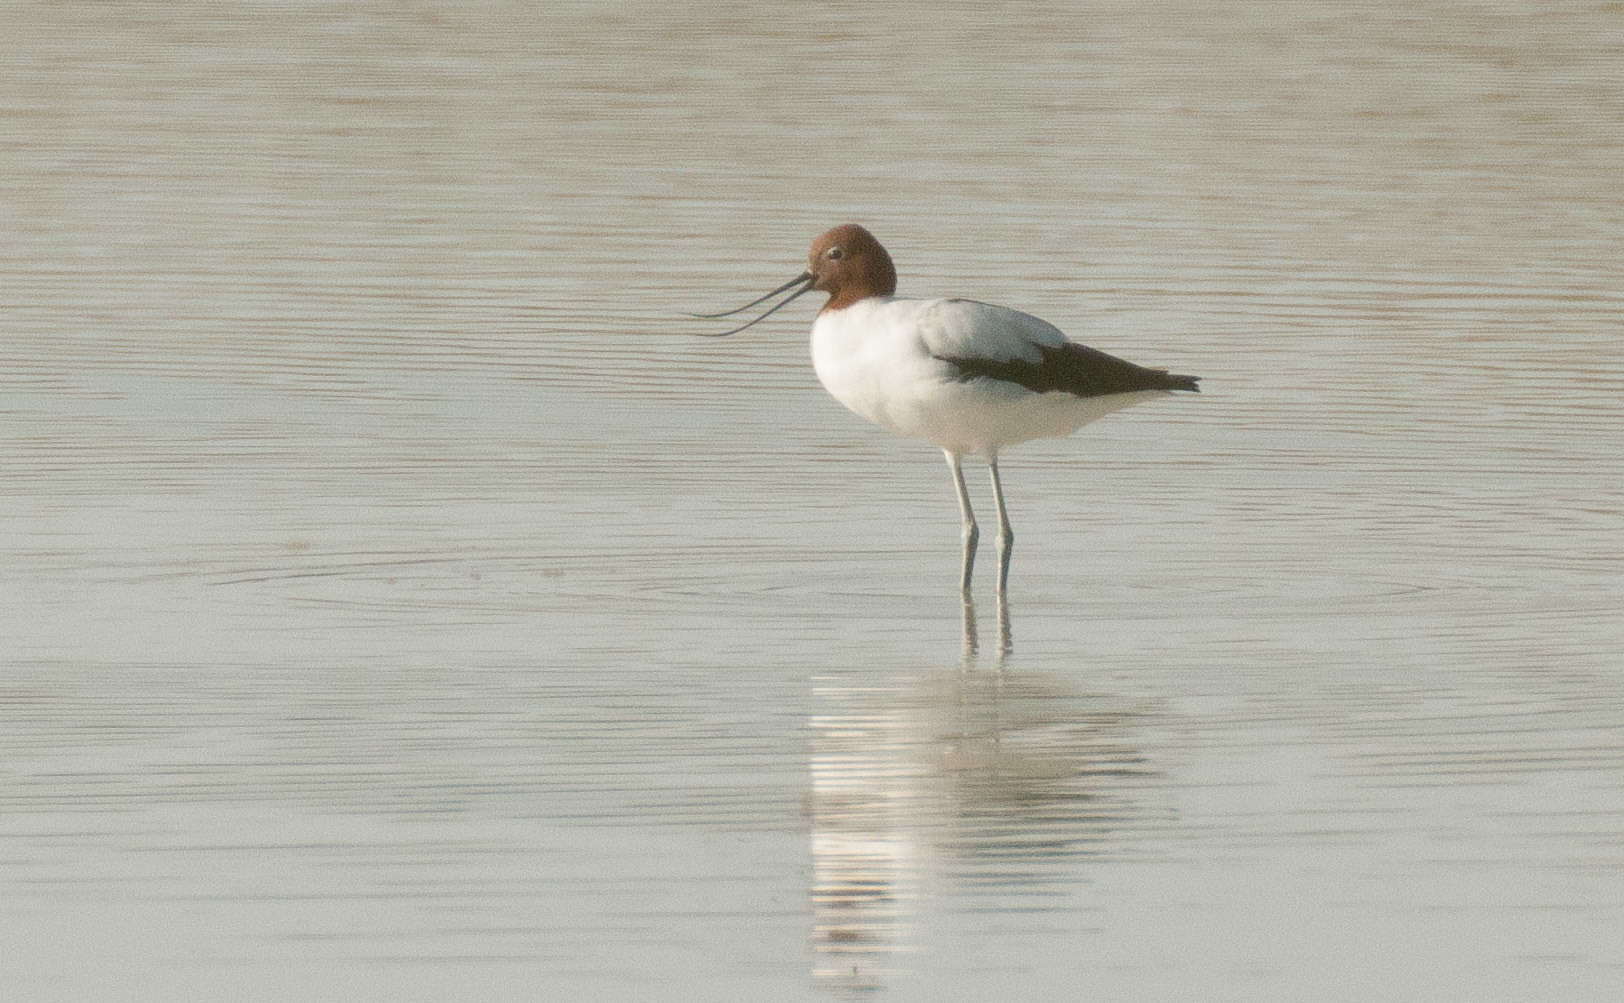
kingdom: Animalia
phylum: Chordata
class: Aves
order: Charadriiformes
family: Recurvirostridae
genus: Recurvirostra
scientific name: Recurvirostra novaehollandiae
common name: Red-necked avocet
